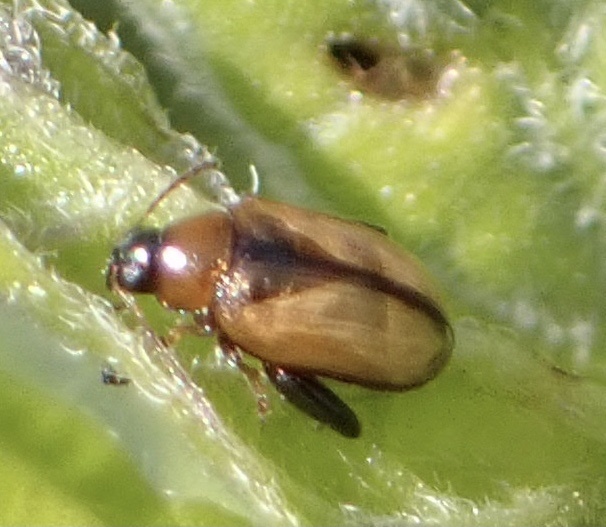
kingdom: Animalia
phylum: Arthropoda
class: Insecta
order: Coleoptera
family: Chrysomelidae
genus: Psylliodes
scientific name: Psylliodes affinis
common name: Potato flea beetle
